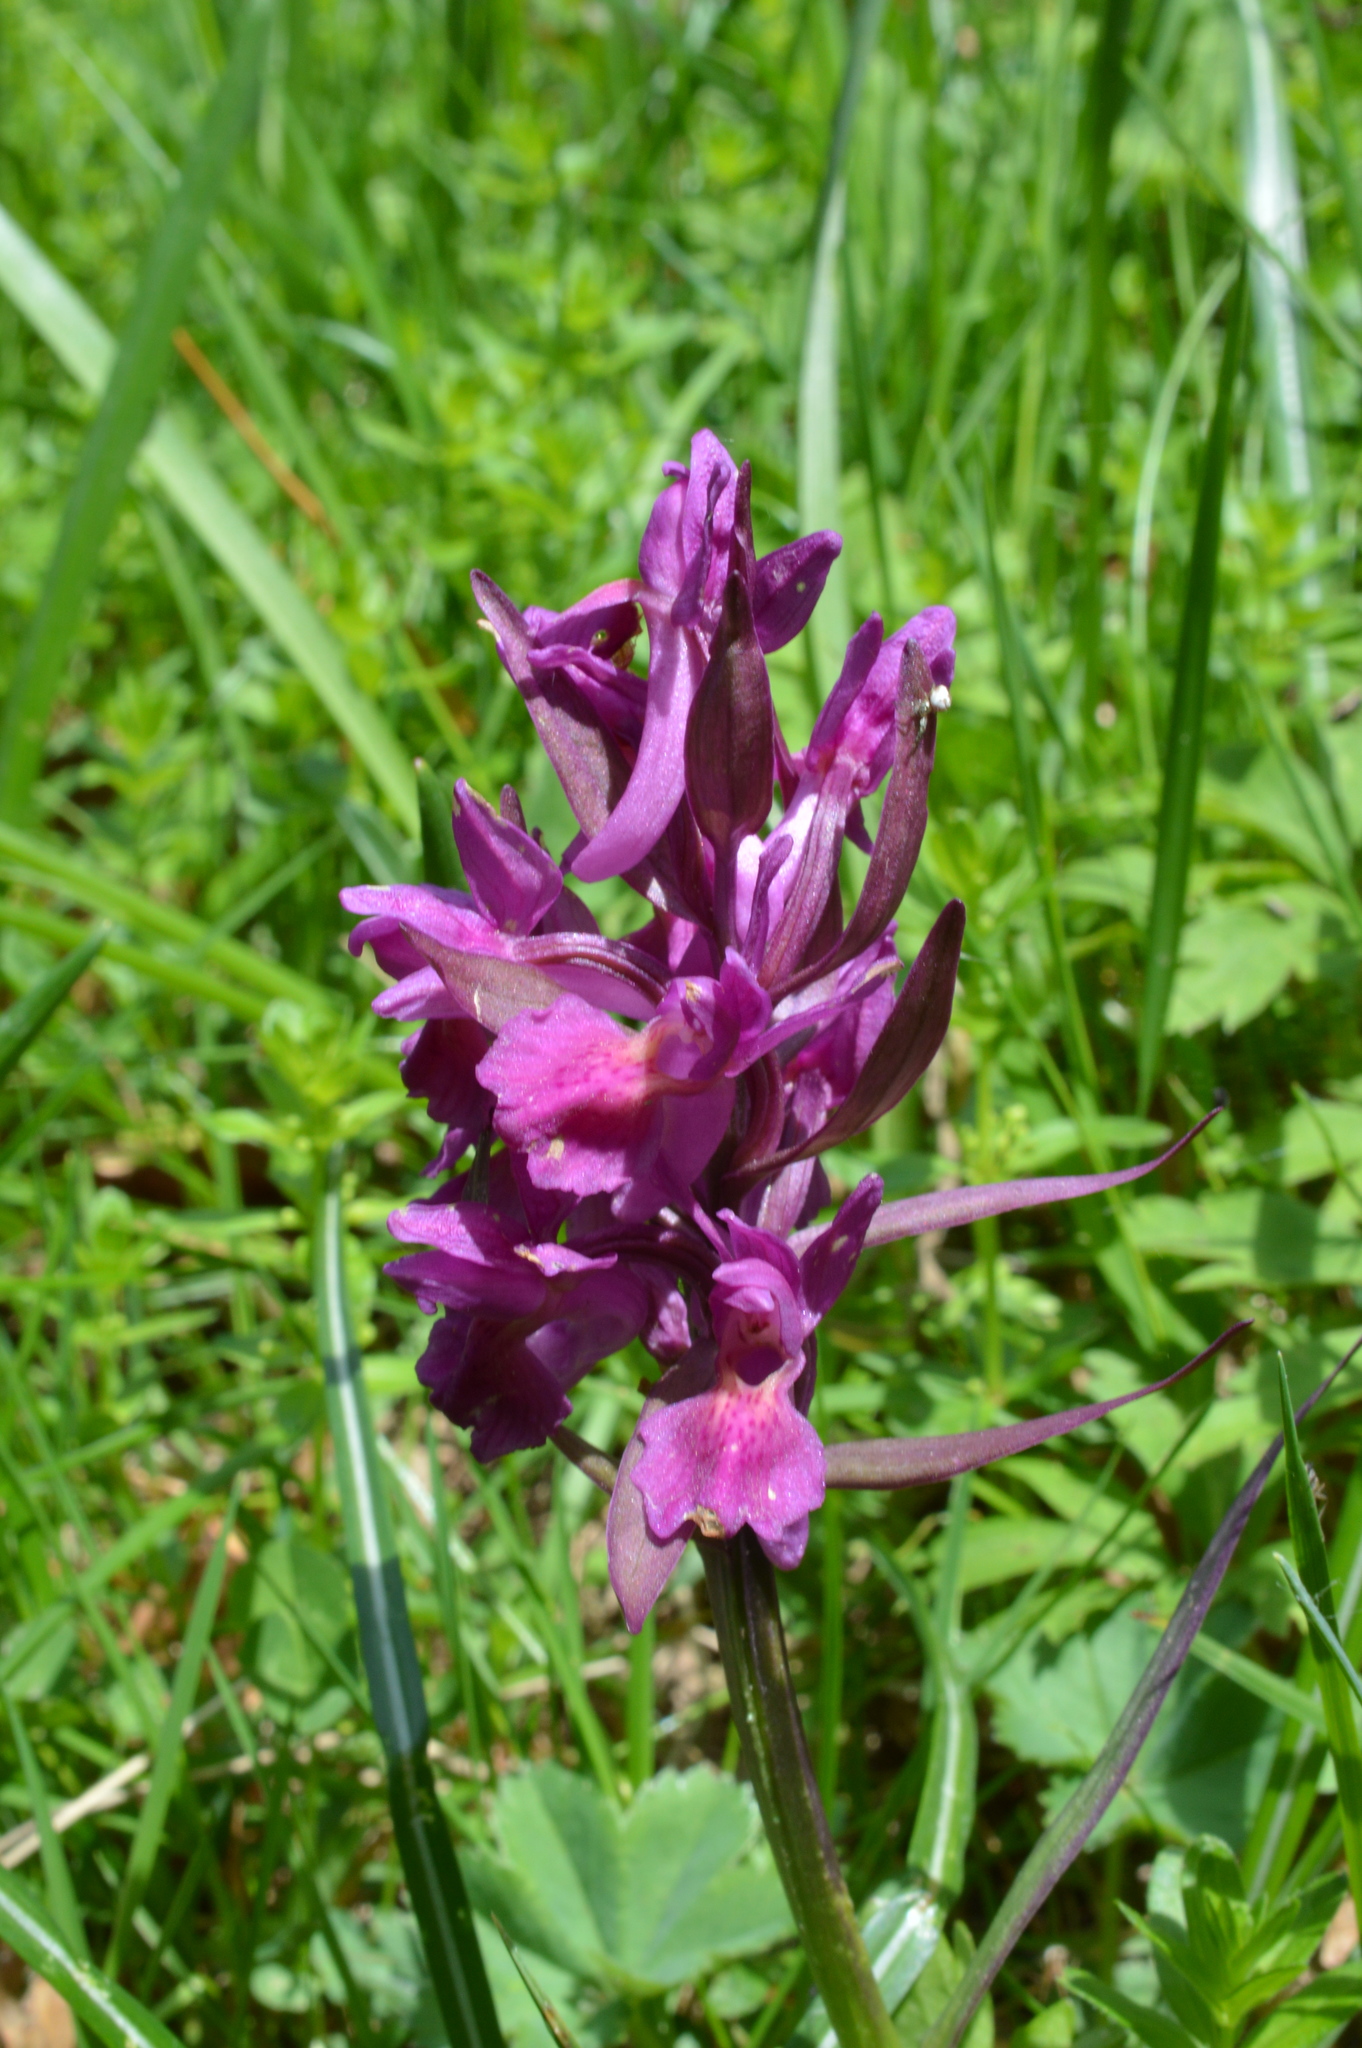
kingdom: Plantae
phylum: Tracheophyta
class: Liliopsida
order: Asparagales
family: Orchidaceae
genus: Dactylorhiza
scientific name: Dactylorhiza sambucina
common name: Elder-flowered orchid
